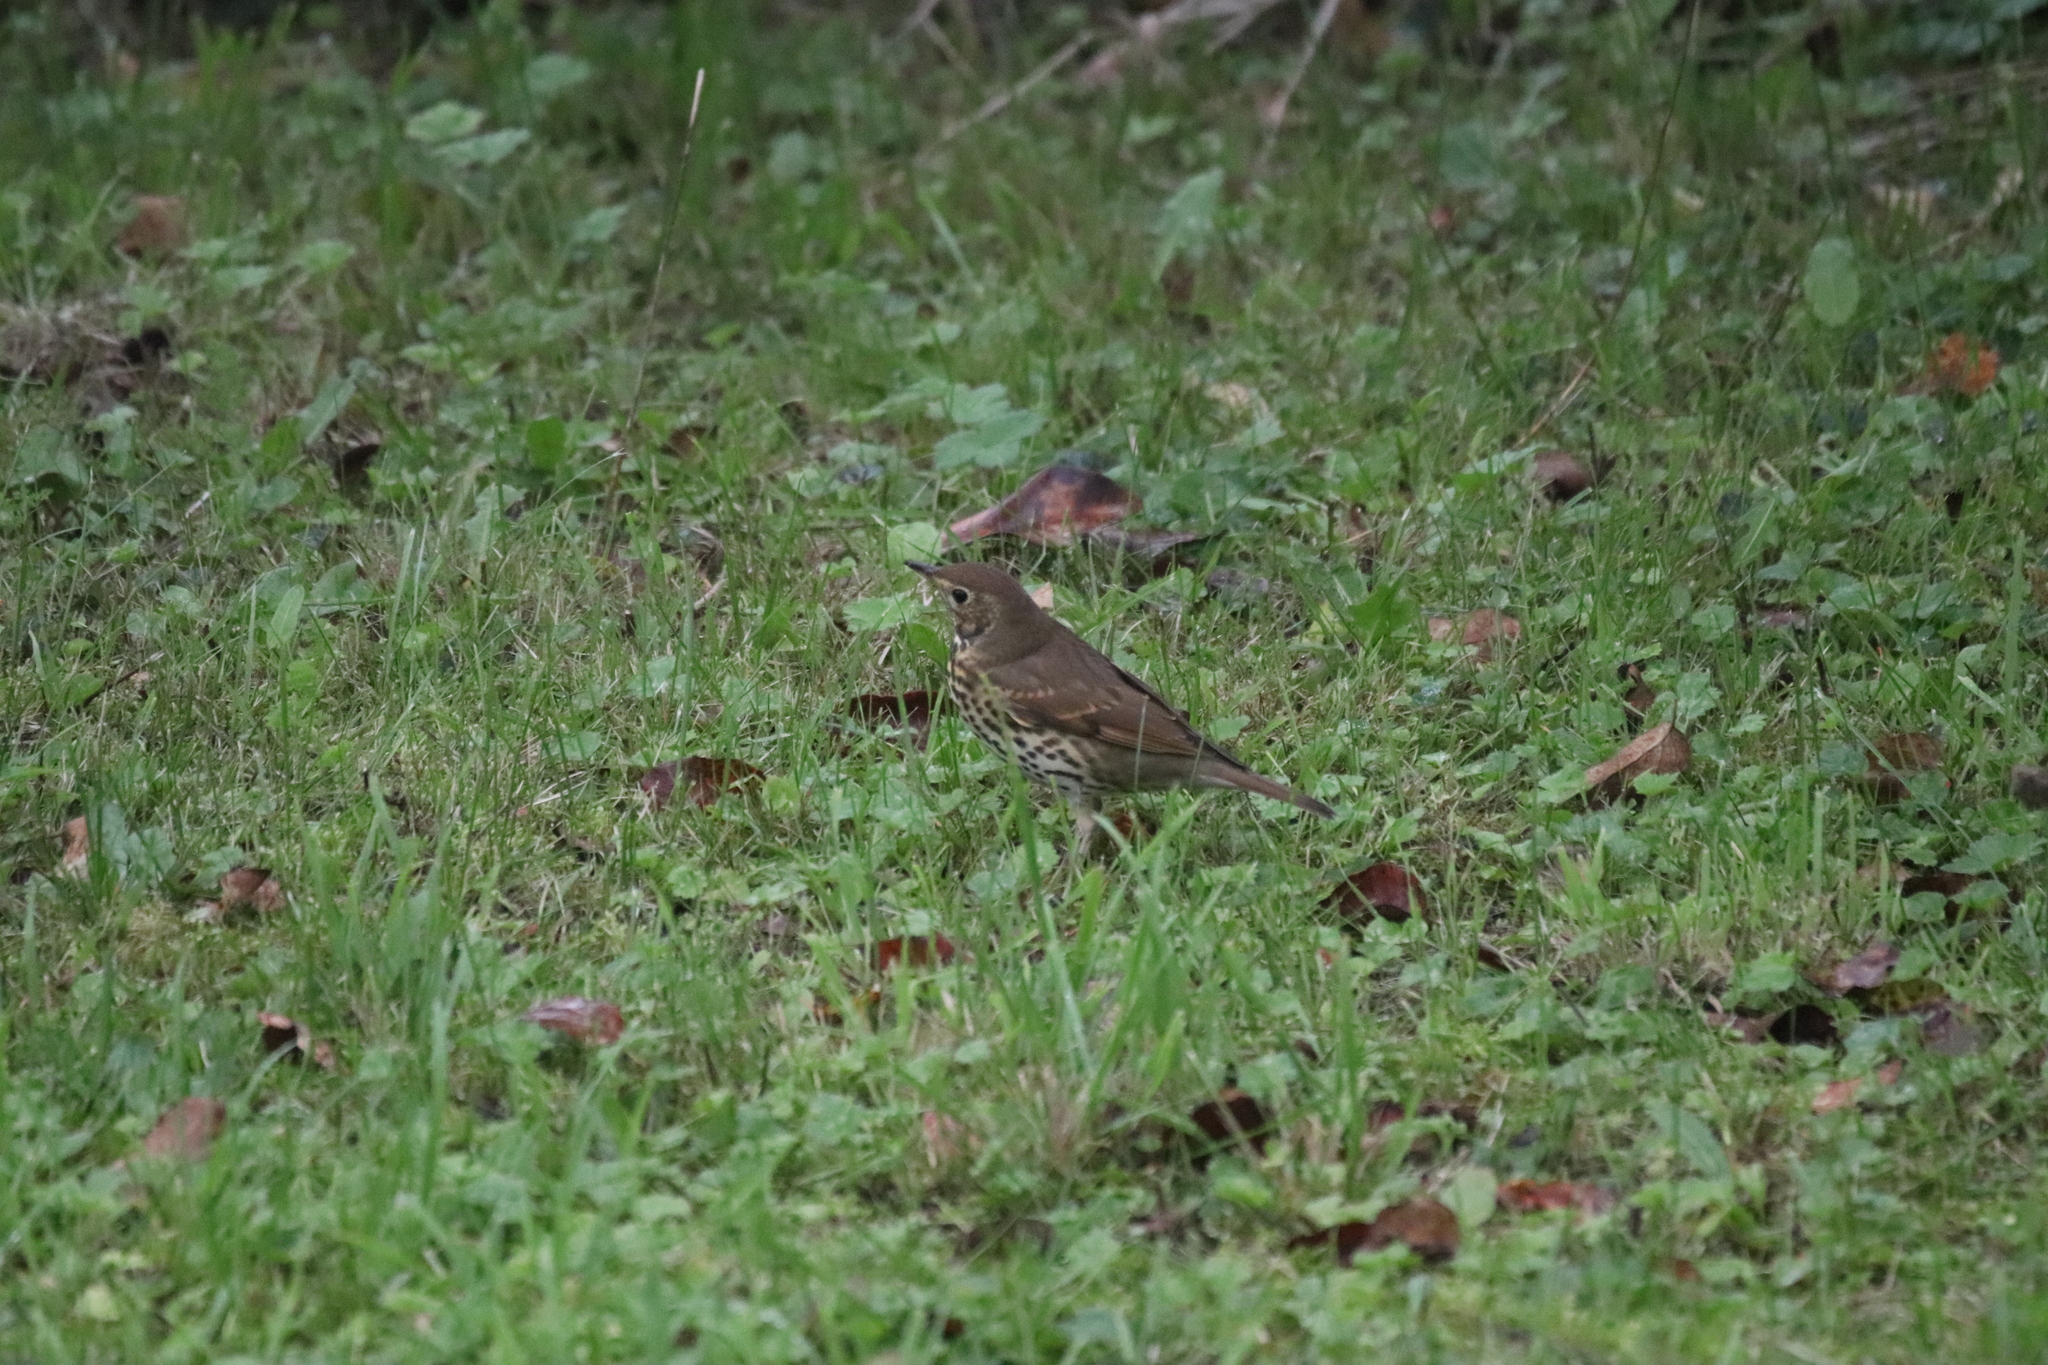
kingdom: Animalia
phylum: Chordata
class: Aves
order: Passeriformes
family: Turdidae
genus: Turdus
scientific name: Turdus philomelos
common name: Song thrush
